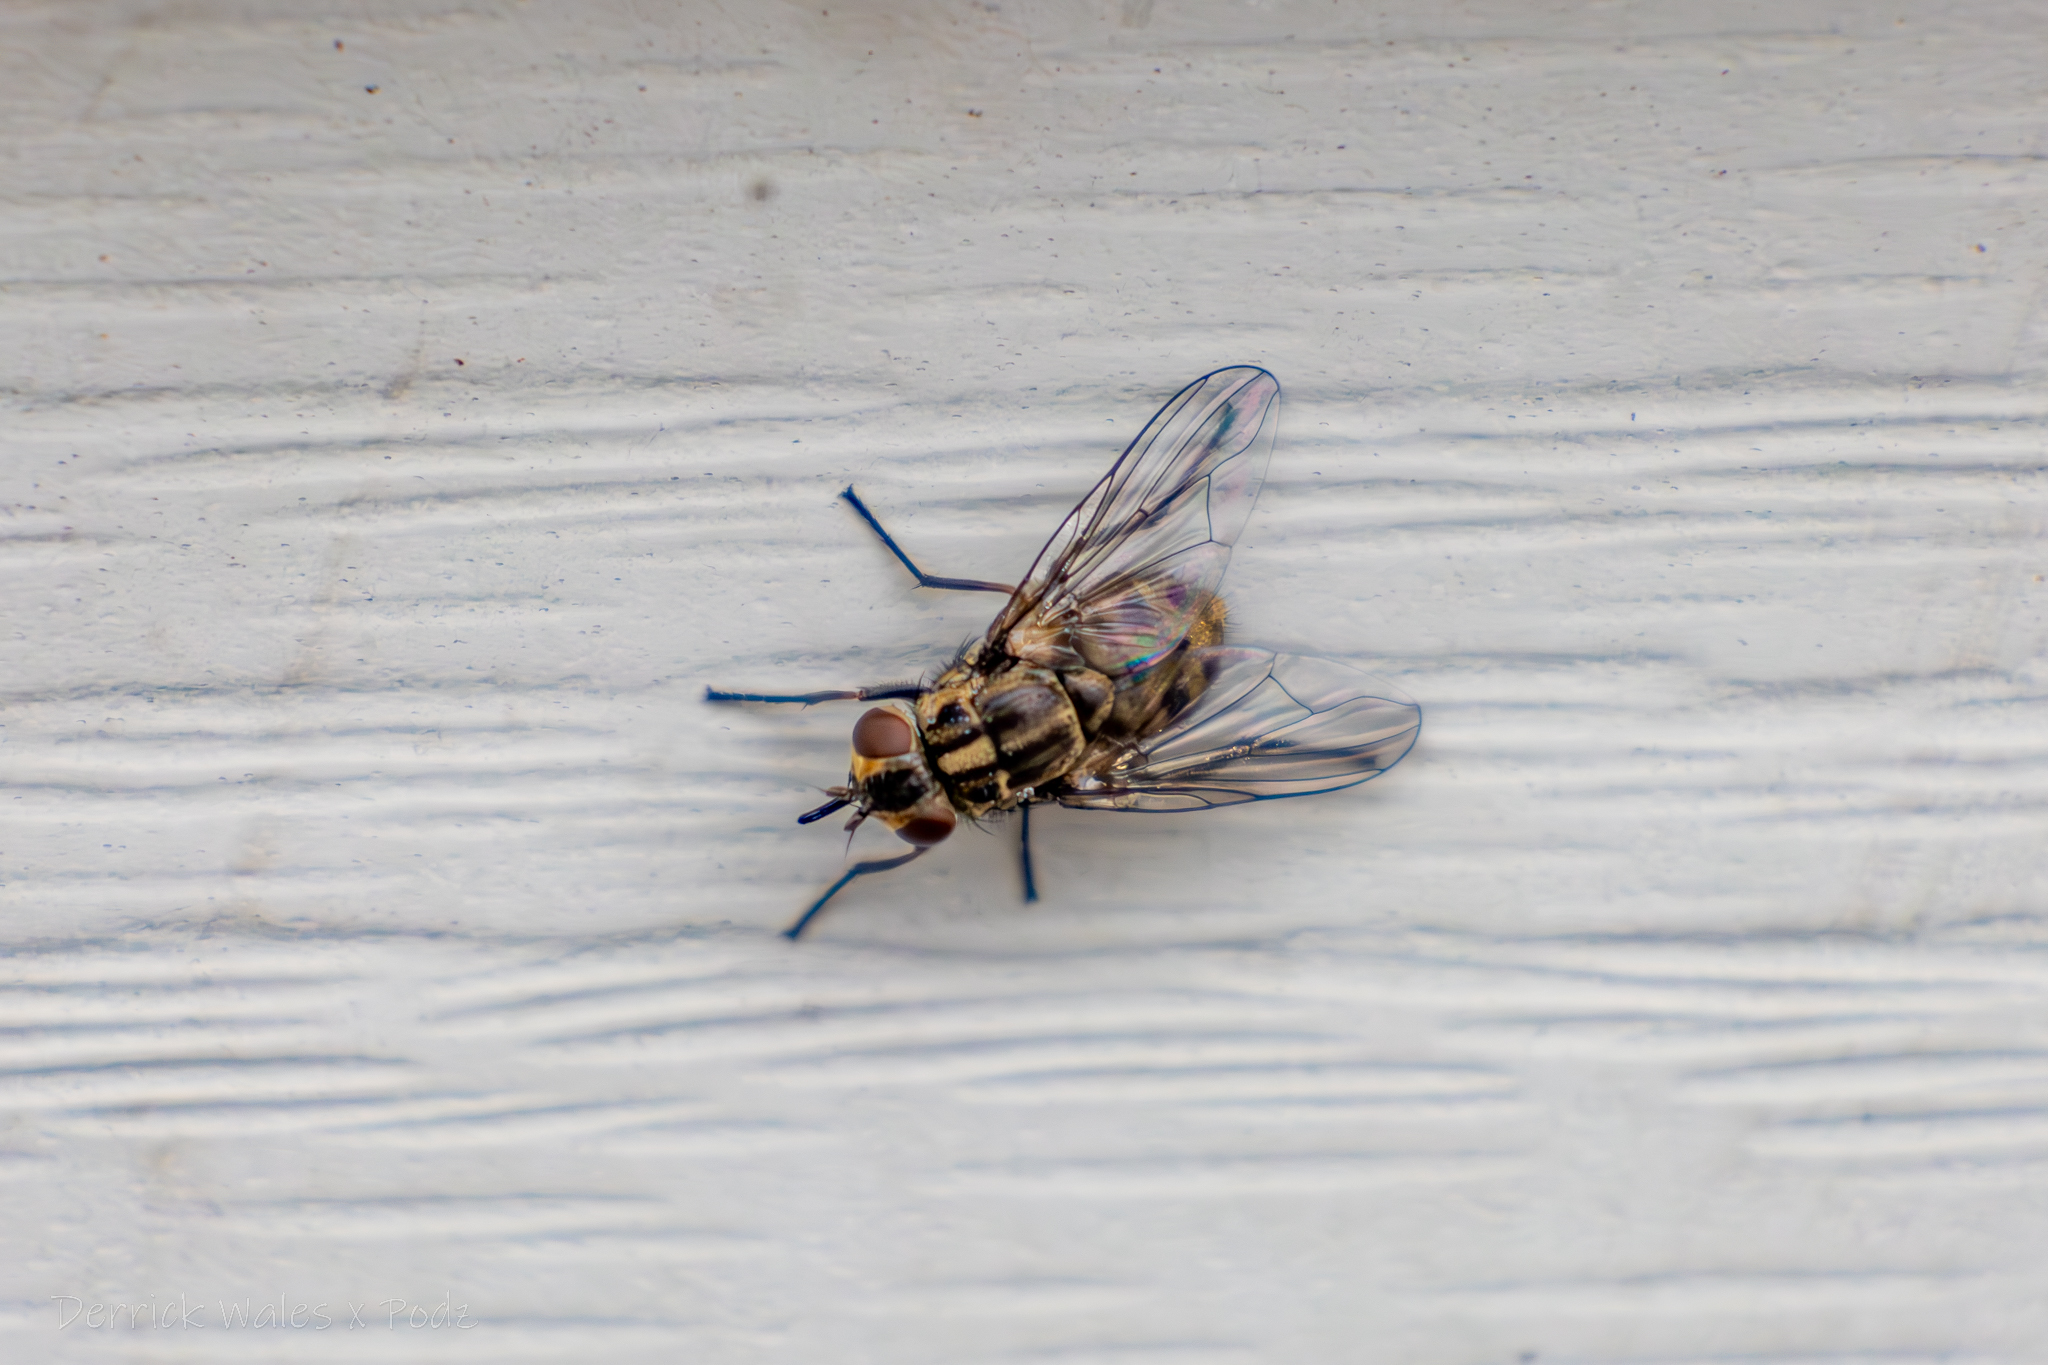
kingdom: Animalia
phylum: Arthropoda
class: Insecta
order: Diptera
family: Muscidae
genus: Stomoxys
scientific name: Stomoxys calcitrans
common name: Stable fly
